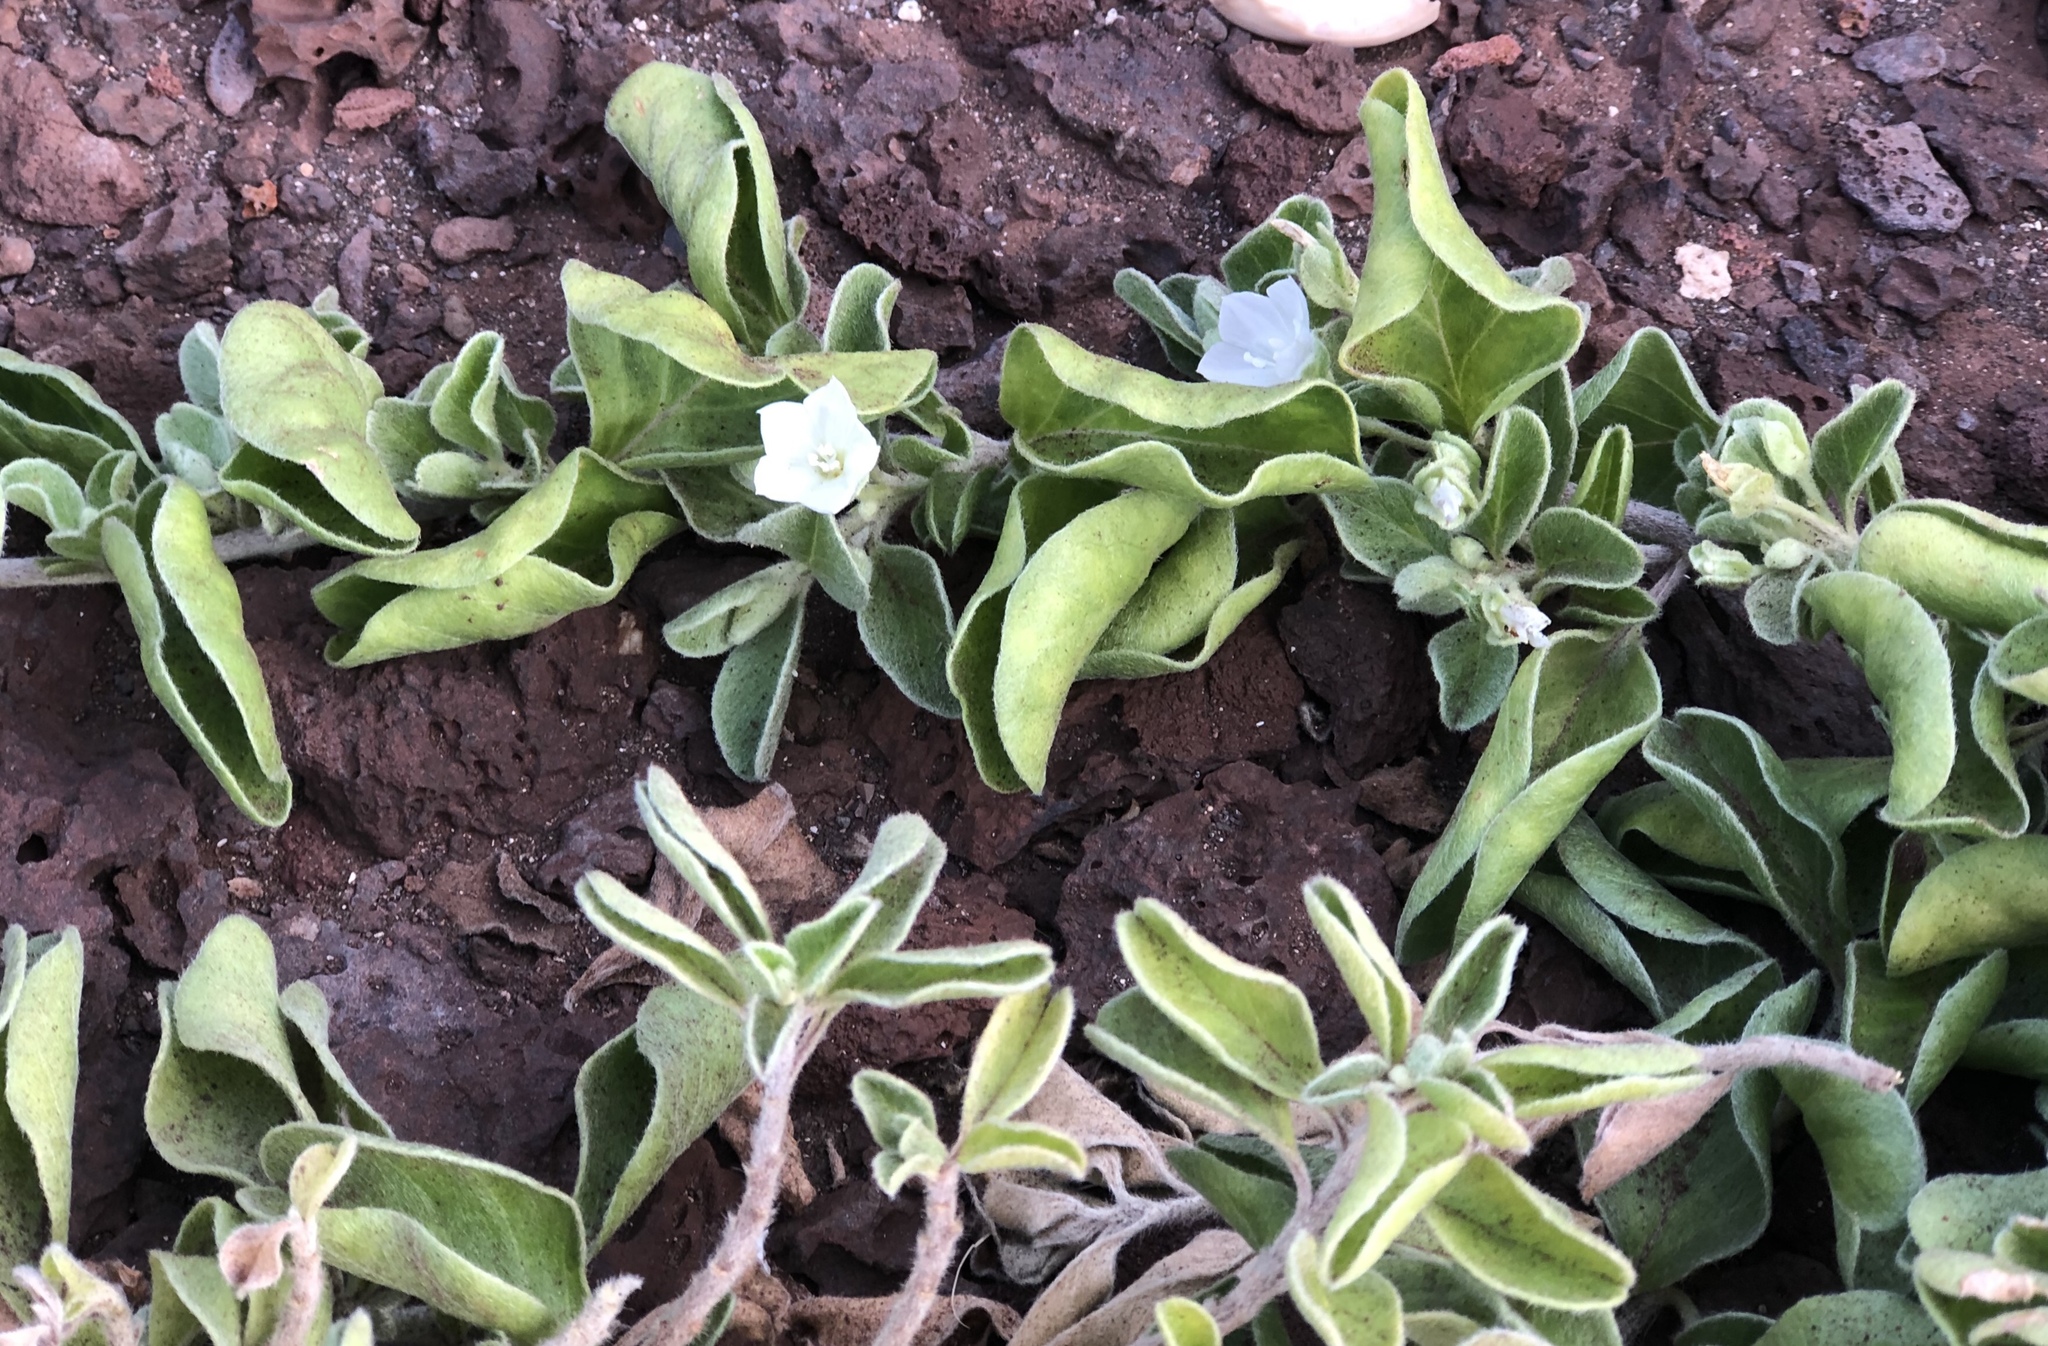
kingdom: Plantae
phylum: Tracheophyta
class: Magnoliopsida
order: Solanales
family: Convolvulaceae
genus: Jacquemontia
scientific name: Jacquemontia sandwicensis
